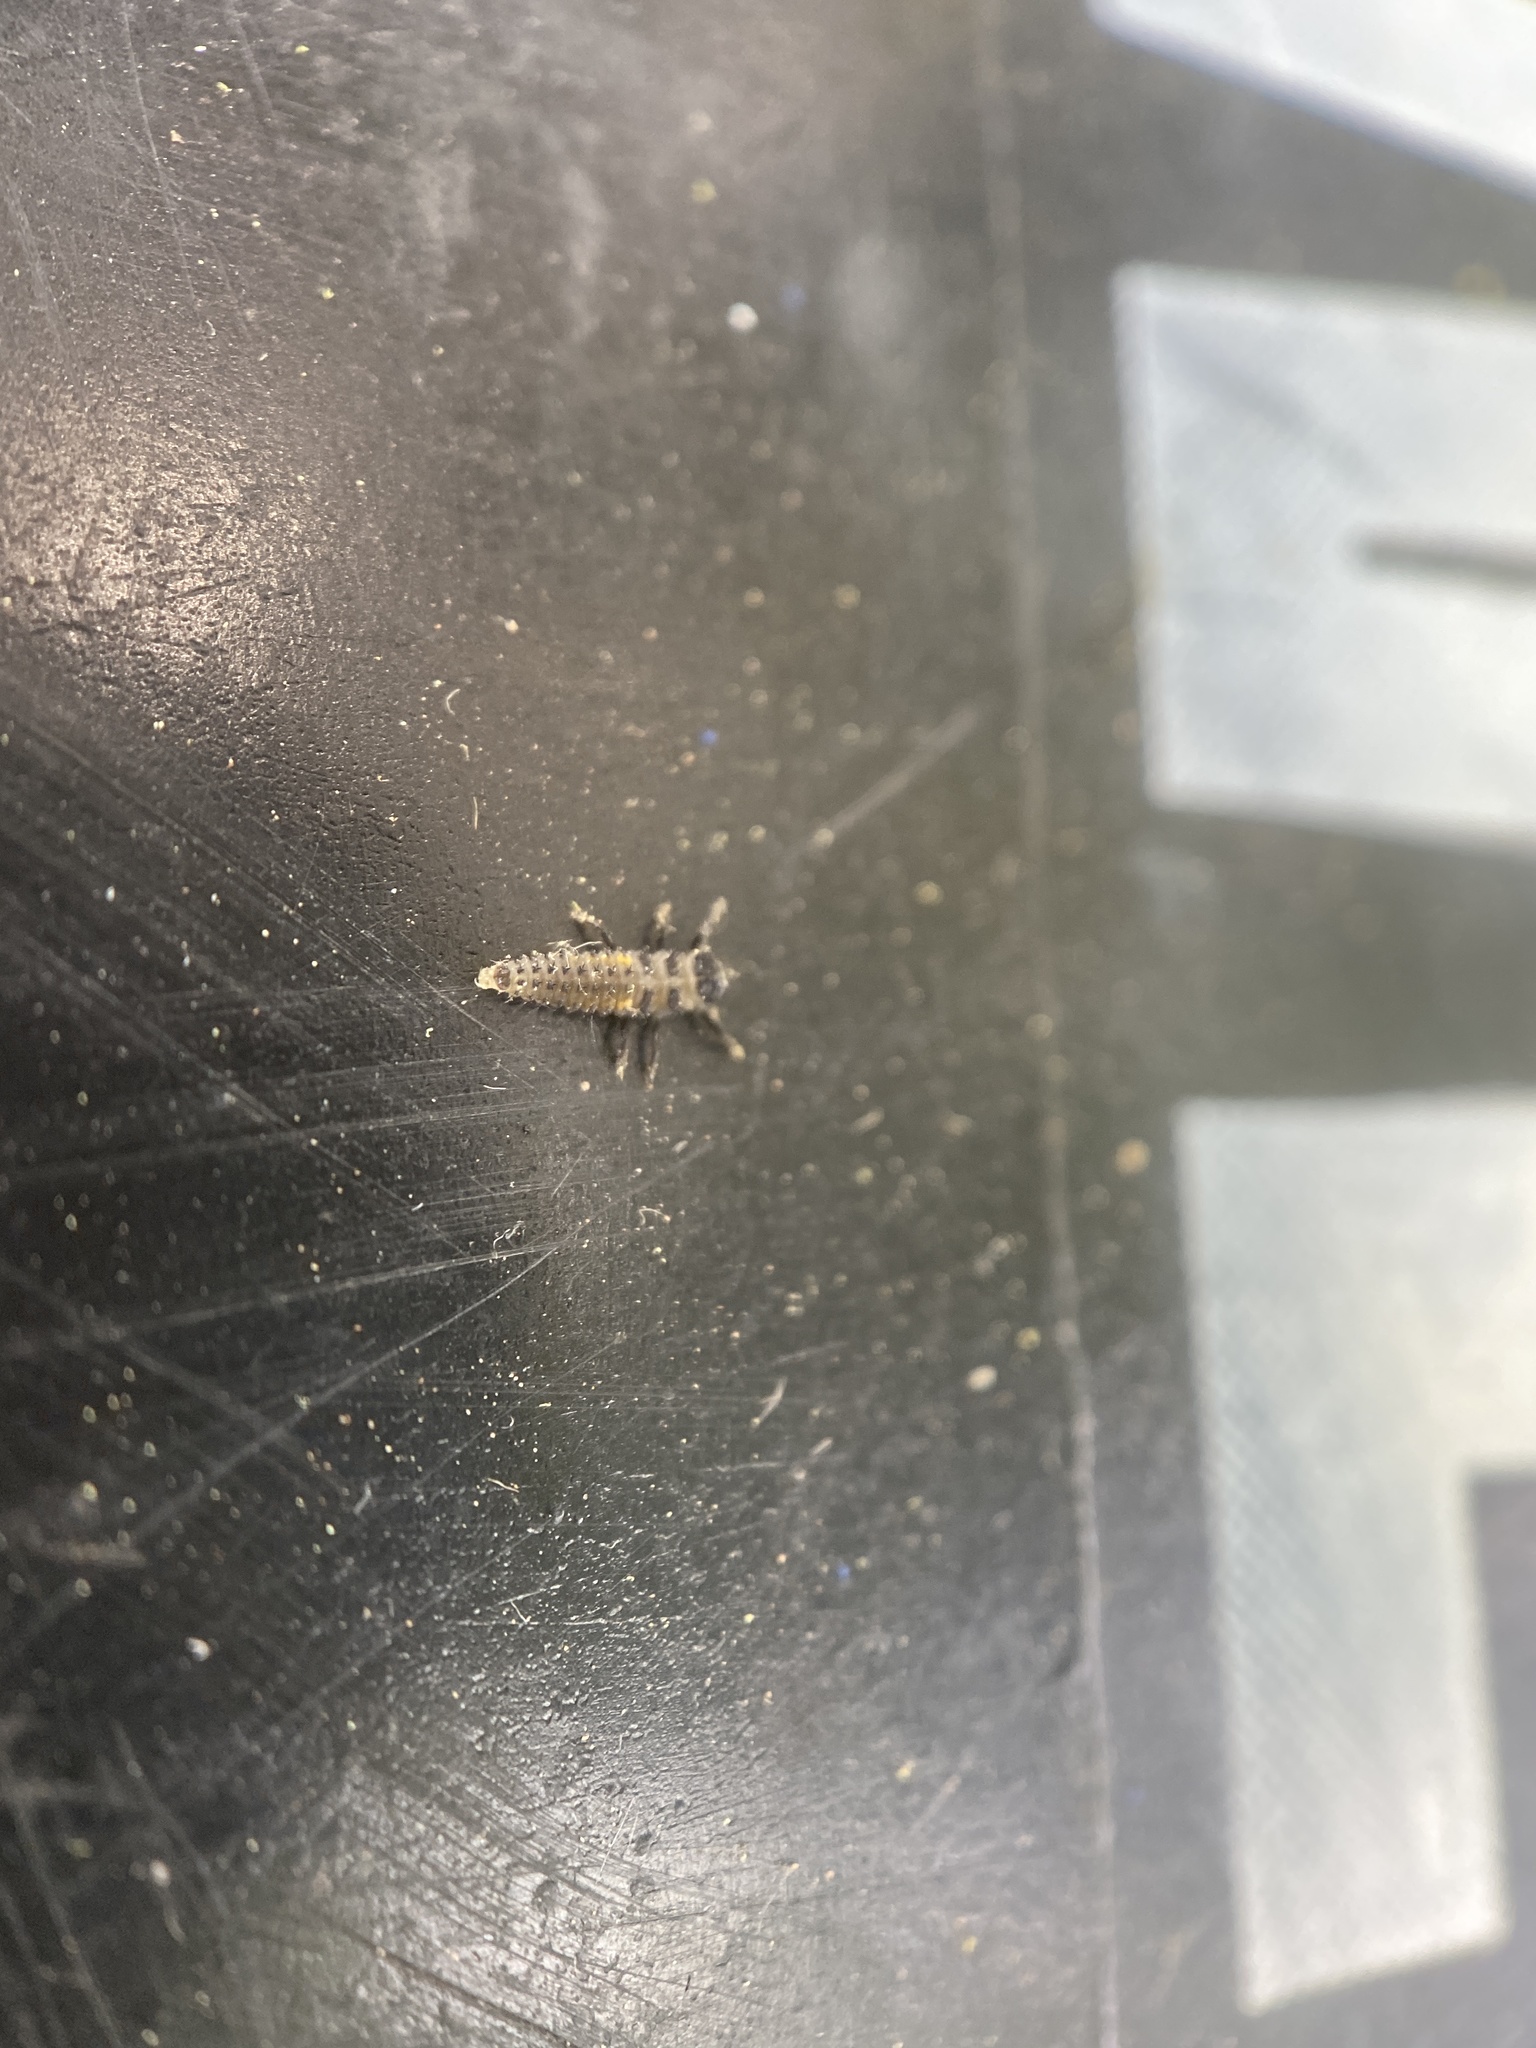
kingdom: Animalia
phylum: Arthropoda
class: Insecta
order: Coleoptera
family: Coccinellidae
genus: Harmonia
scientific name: Harmonia axyridis
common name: Harlequin ladybird
